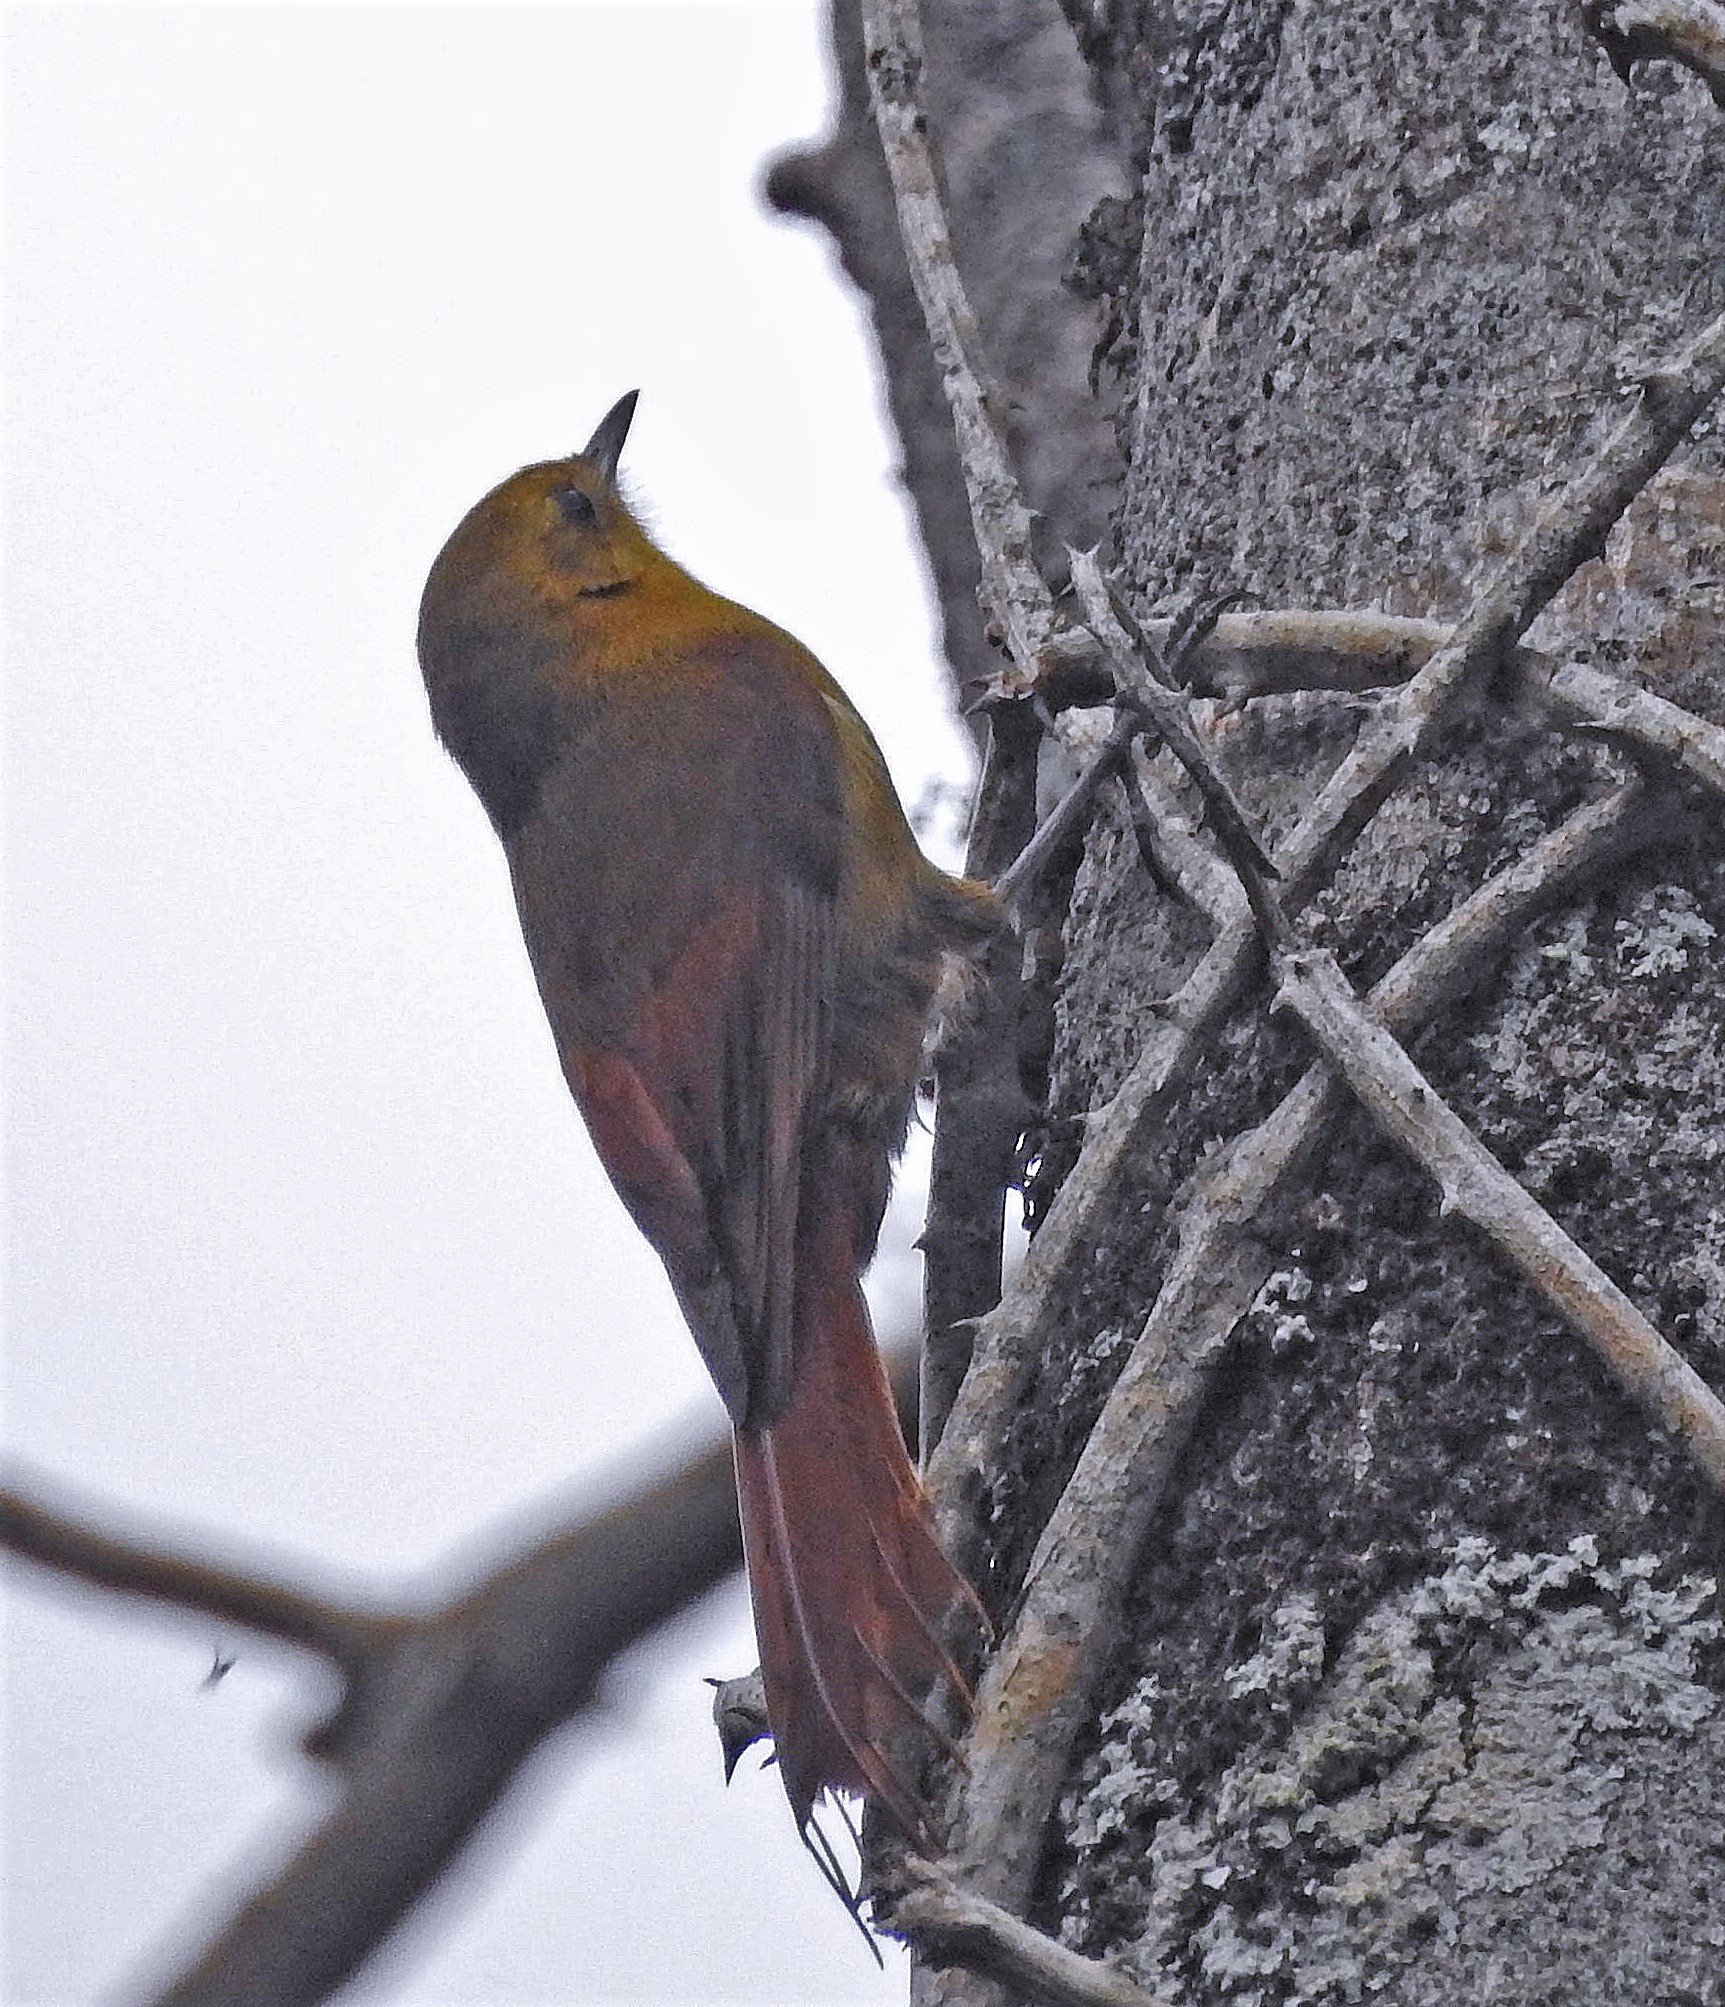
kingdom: Animalia
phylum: Chordata
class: Aves
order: Passeriformes
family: Furnariidae
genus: Sittasomus
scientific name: Sittasomus griseicapillus
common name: Olivaceous woodcreeper
